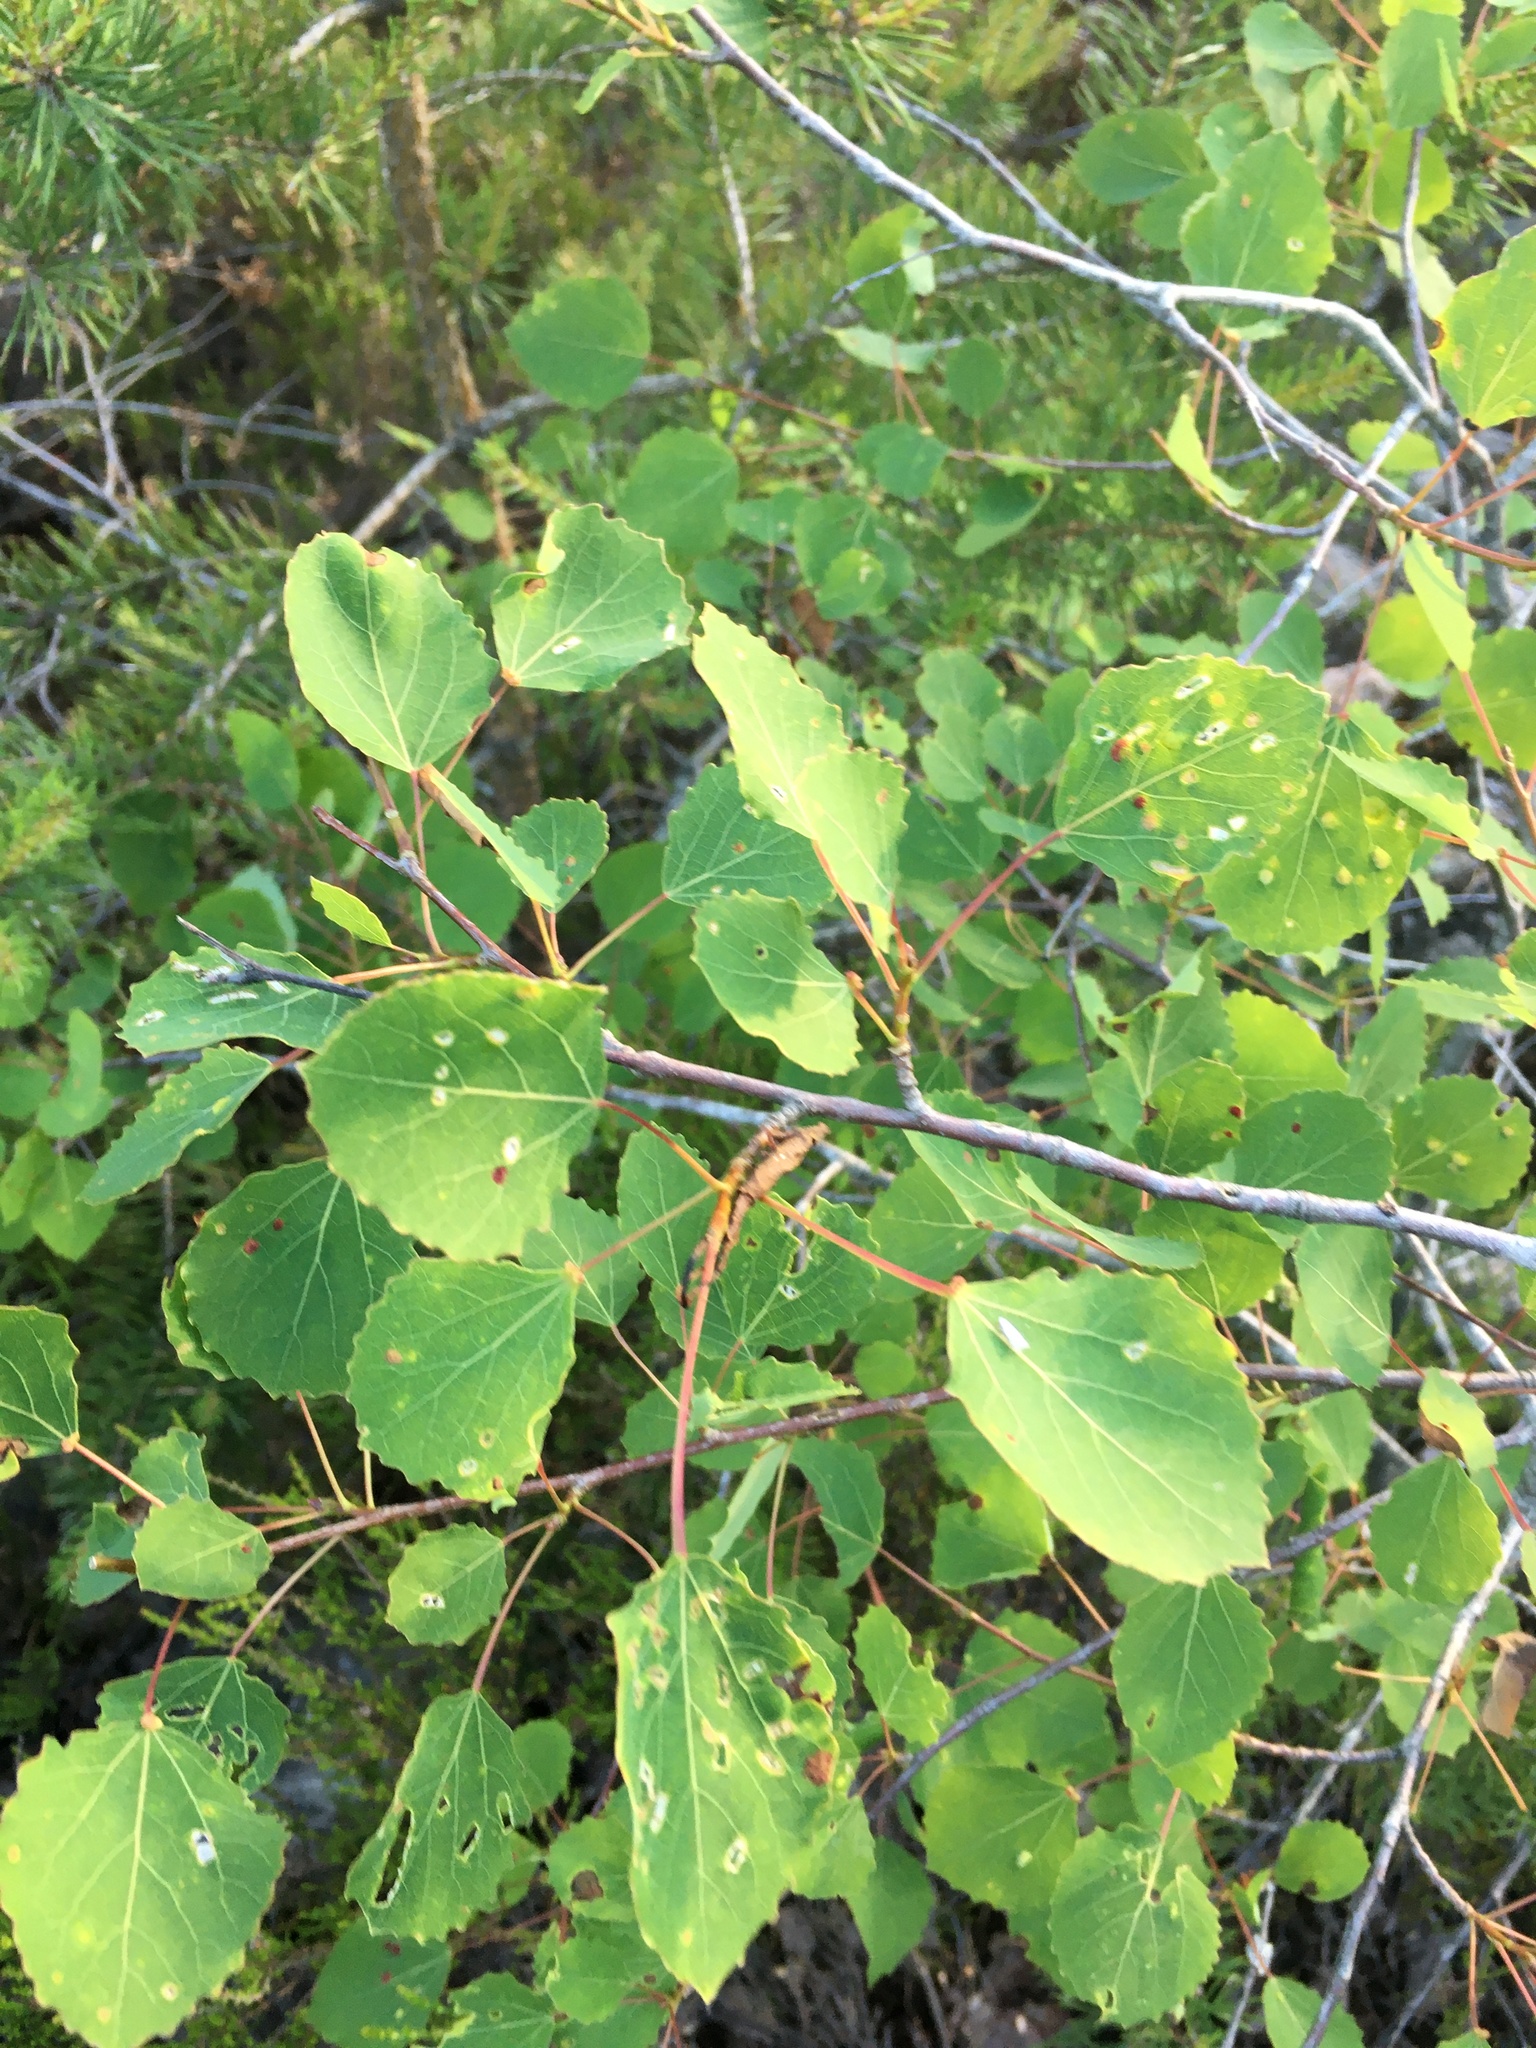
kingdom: Plantae
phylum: Tracheophyta
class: Magnoliopsida
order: Malpighiales
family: Salicaceae
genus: Populus
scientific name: Populus tremula
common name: European aspen
